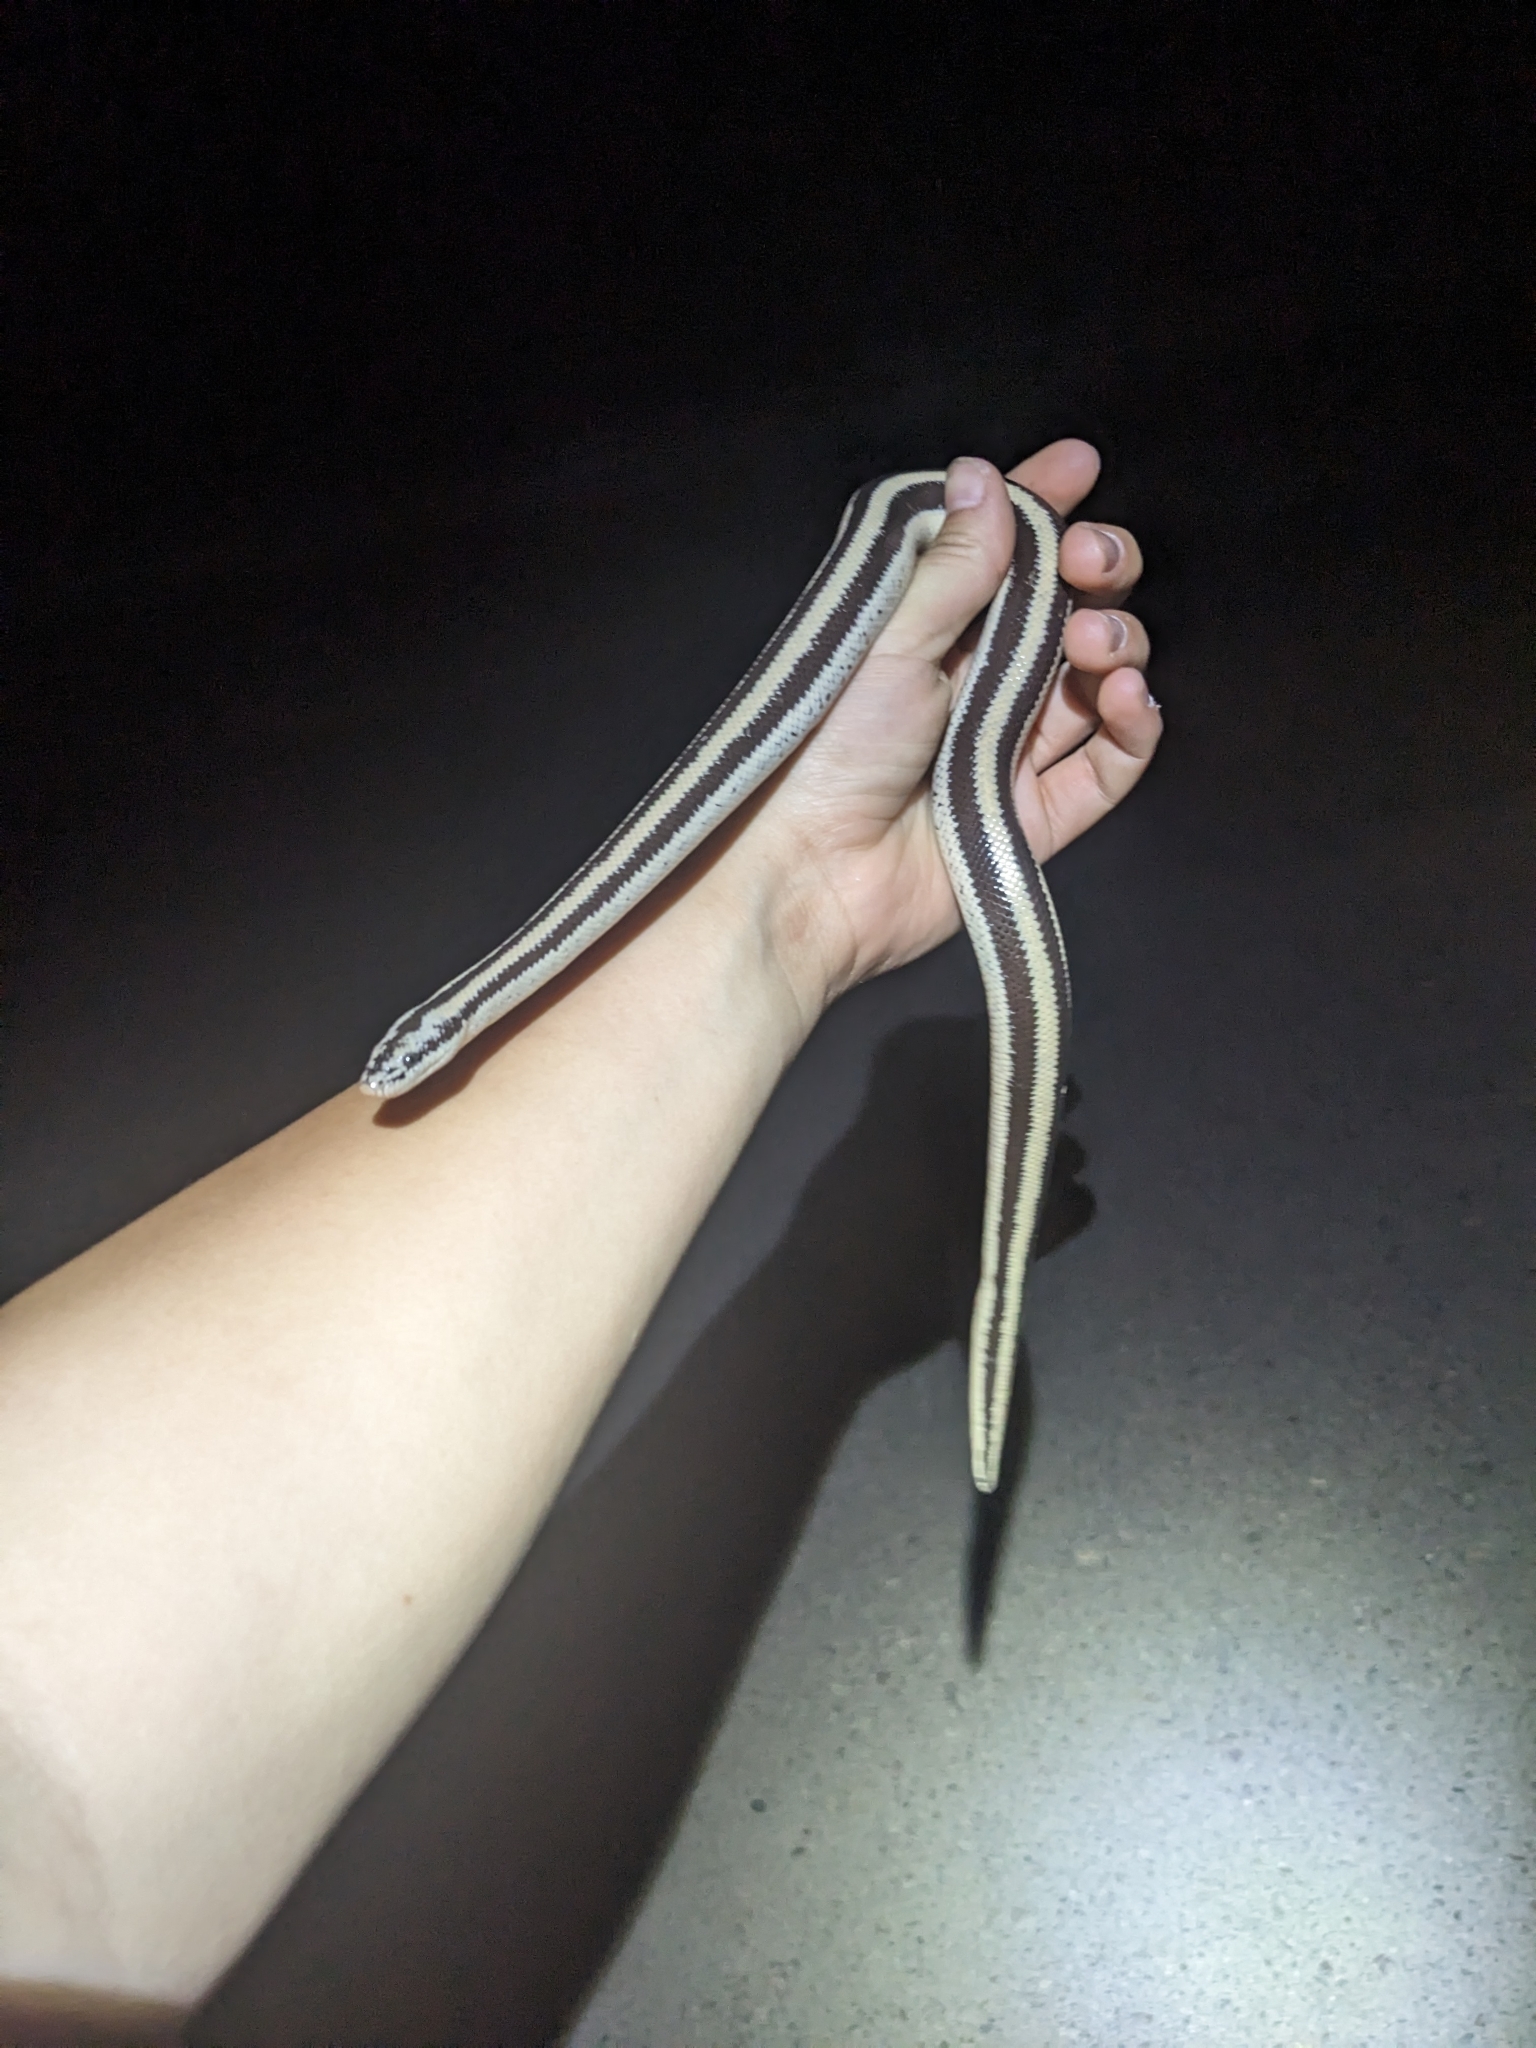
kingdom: Animalia
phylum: Chordata
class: Squamata
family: Boidae
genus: Lichanura
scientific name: Lichanura trivirgata
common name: Rosy boa
